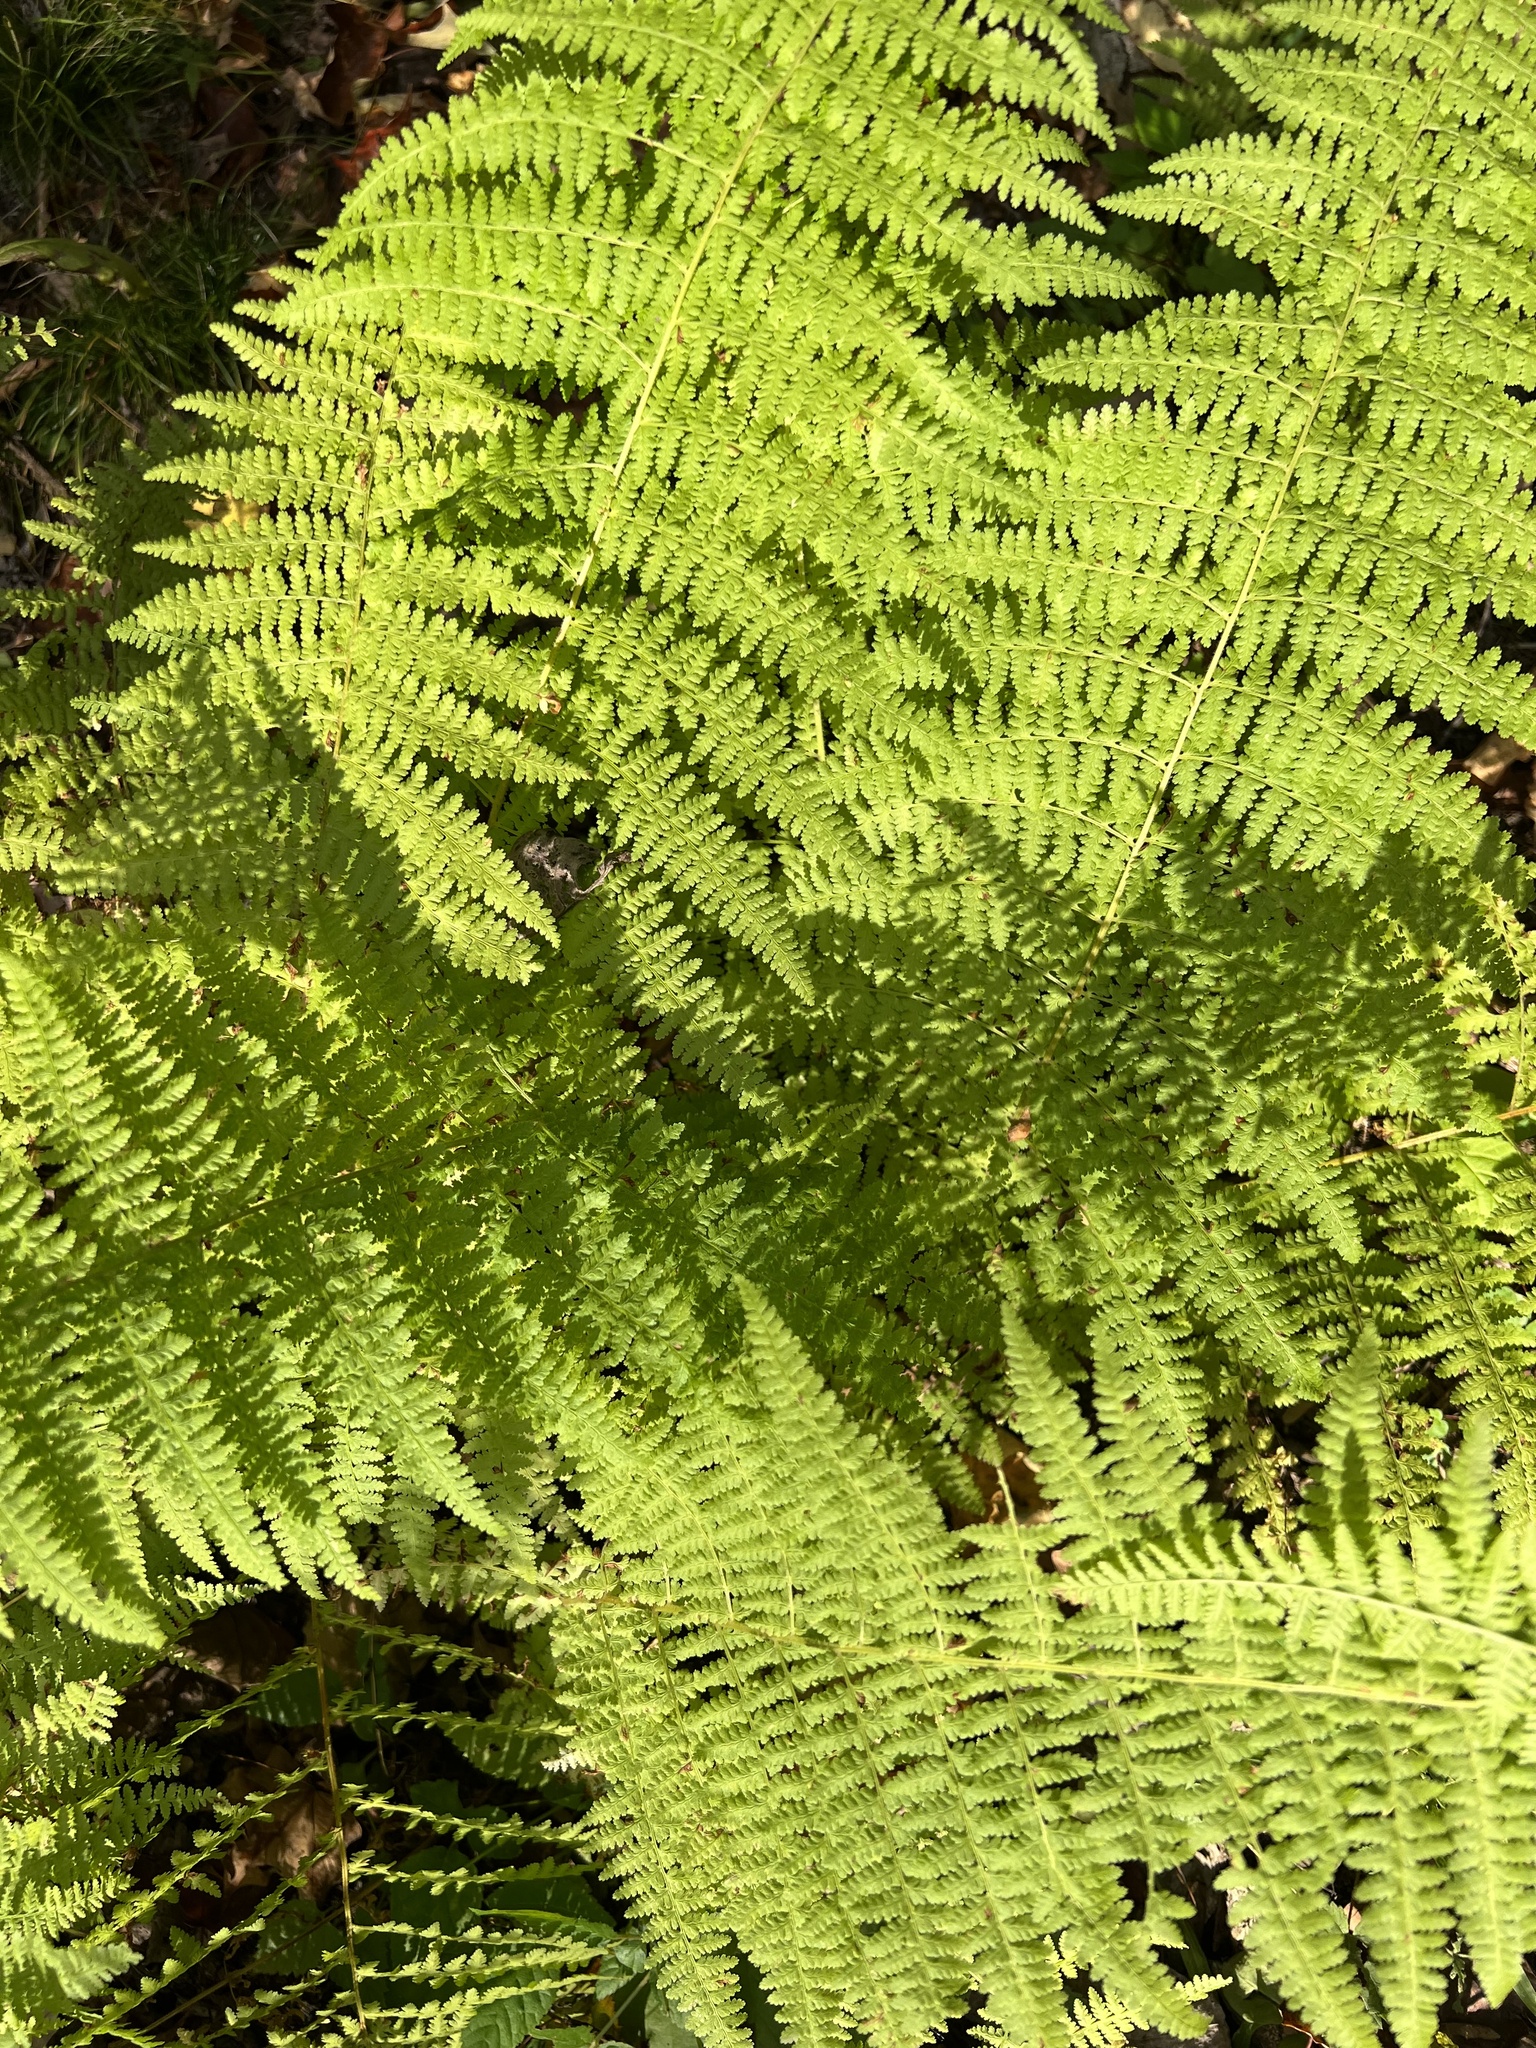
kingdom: Plantae
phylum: Tracheophyta
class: Polypodiopsida
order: Polypodiales
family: Dennstaedtiaceae
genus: Sitobolium
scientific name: Sitobolium punctilobum
